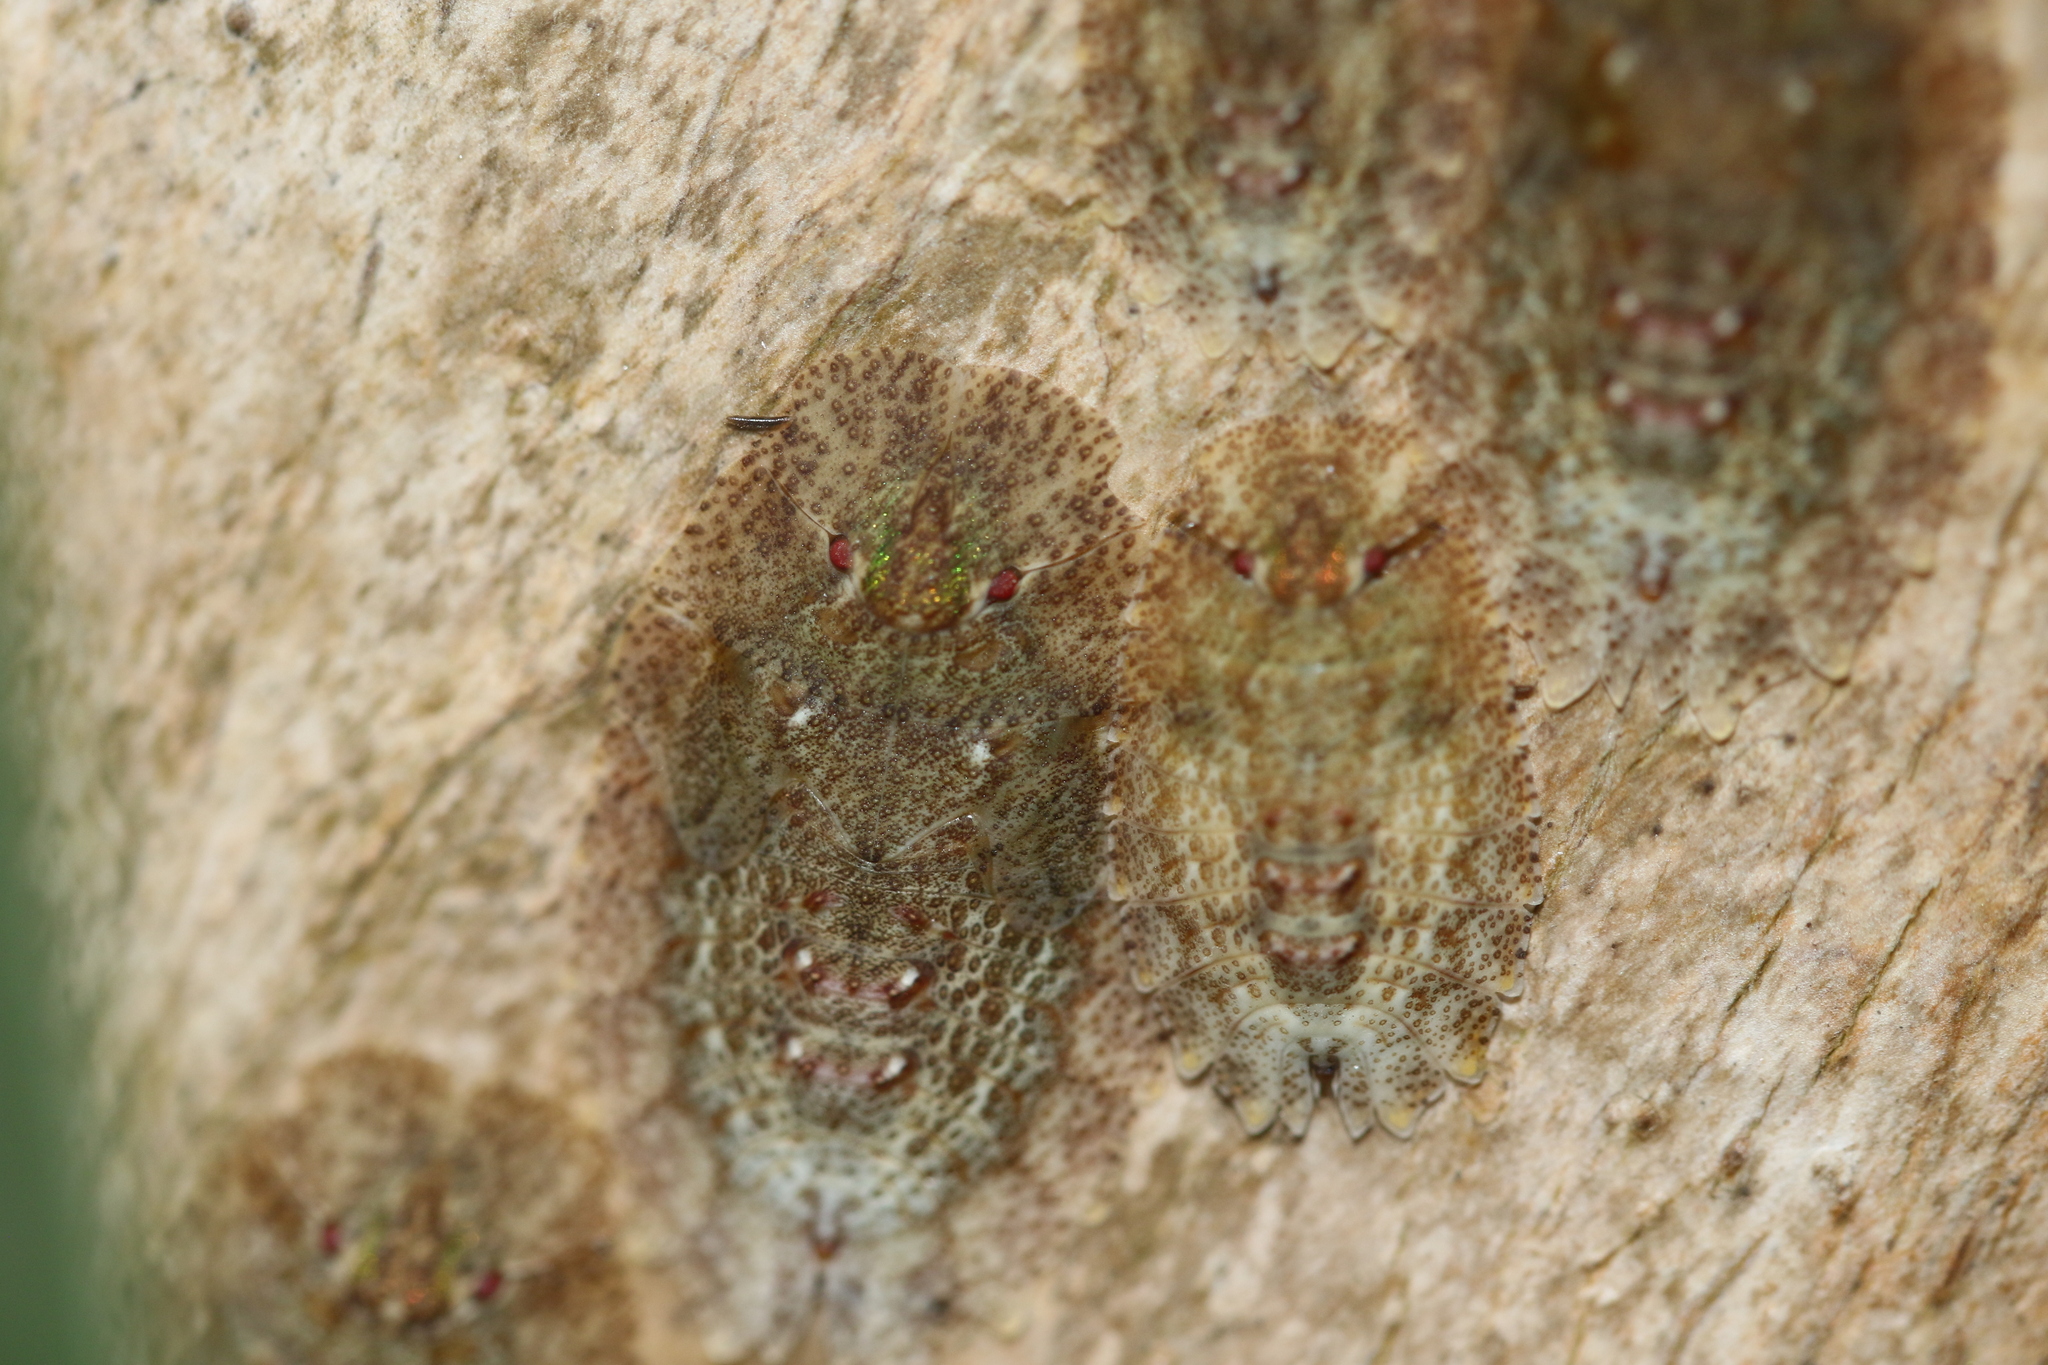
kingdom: Animalia
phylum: Arthropoda
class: Insecta
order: Hemiptera
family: Phleides
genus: Phloea
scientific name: Phloea
